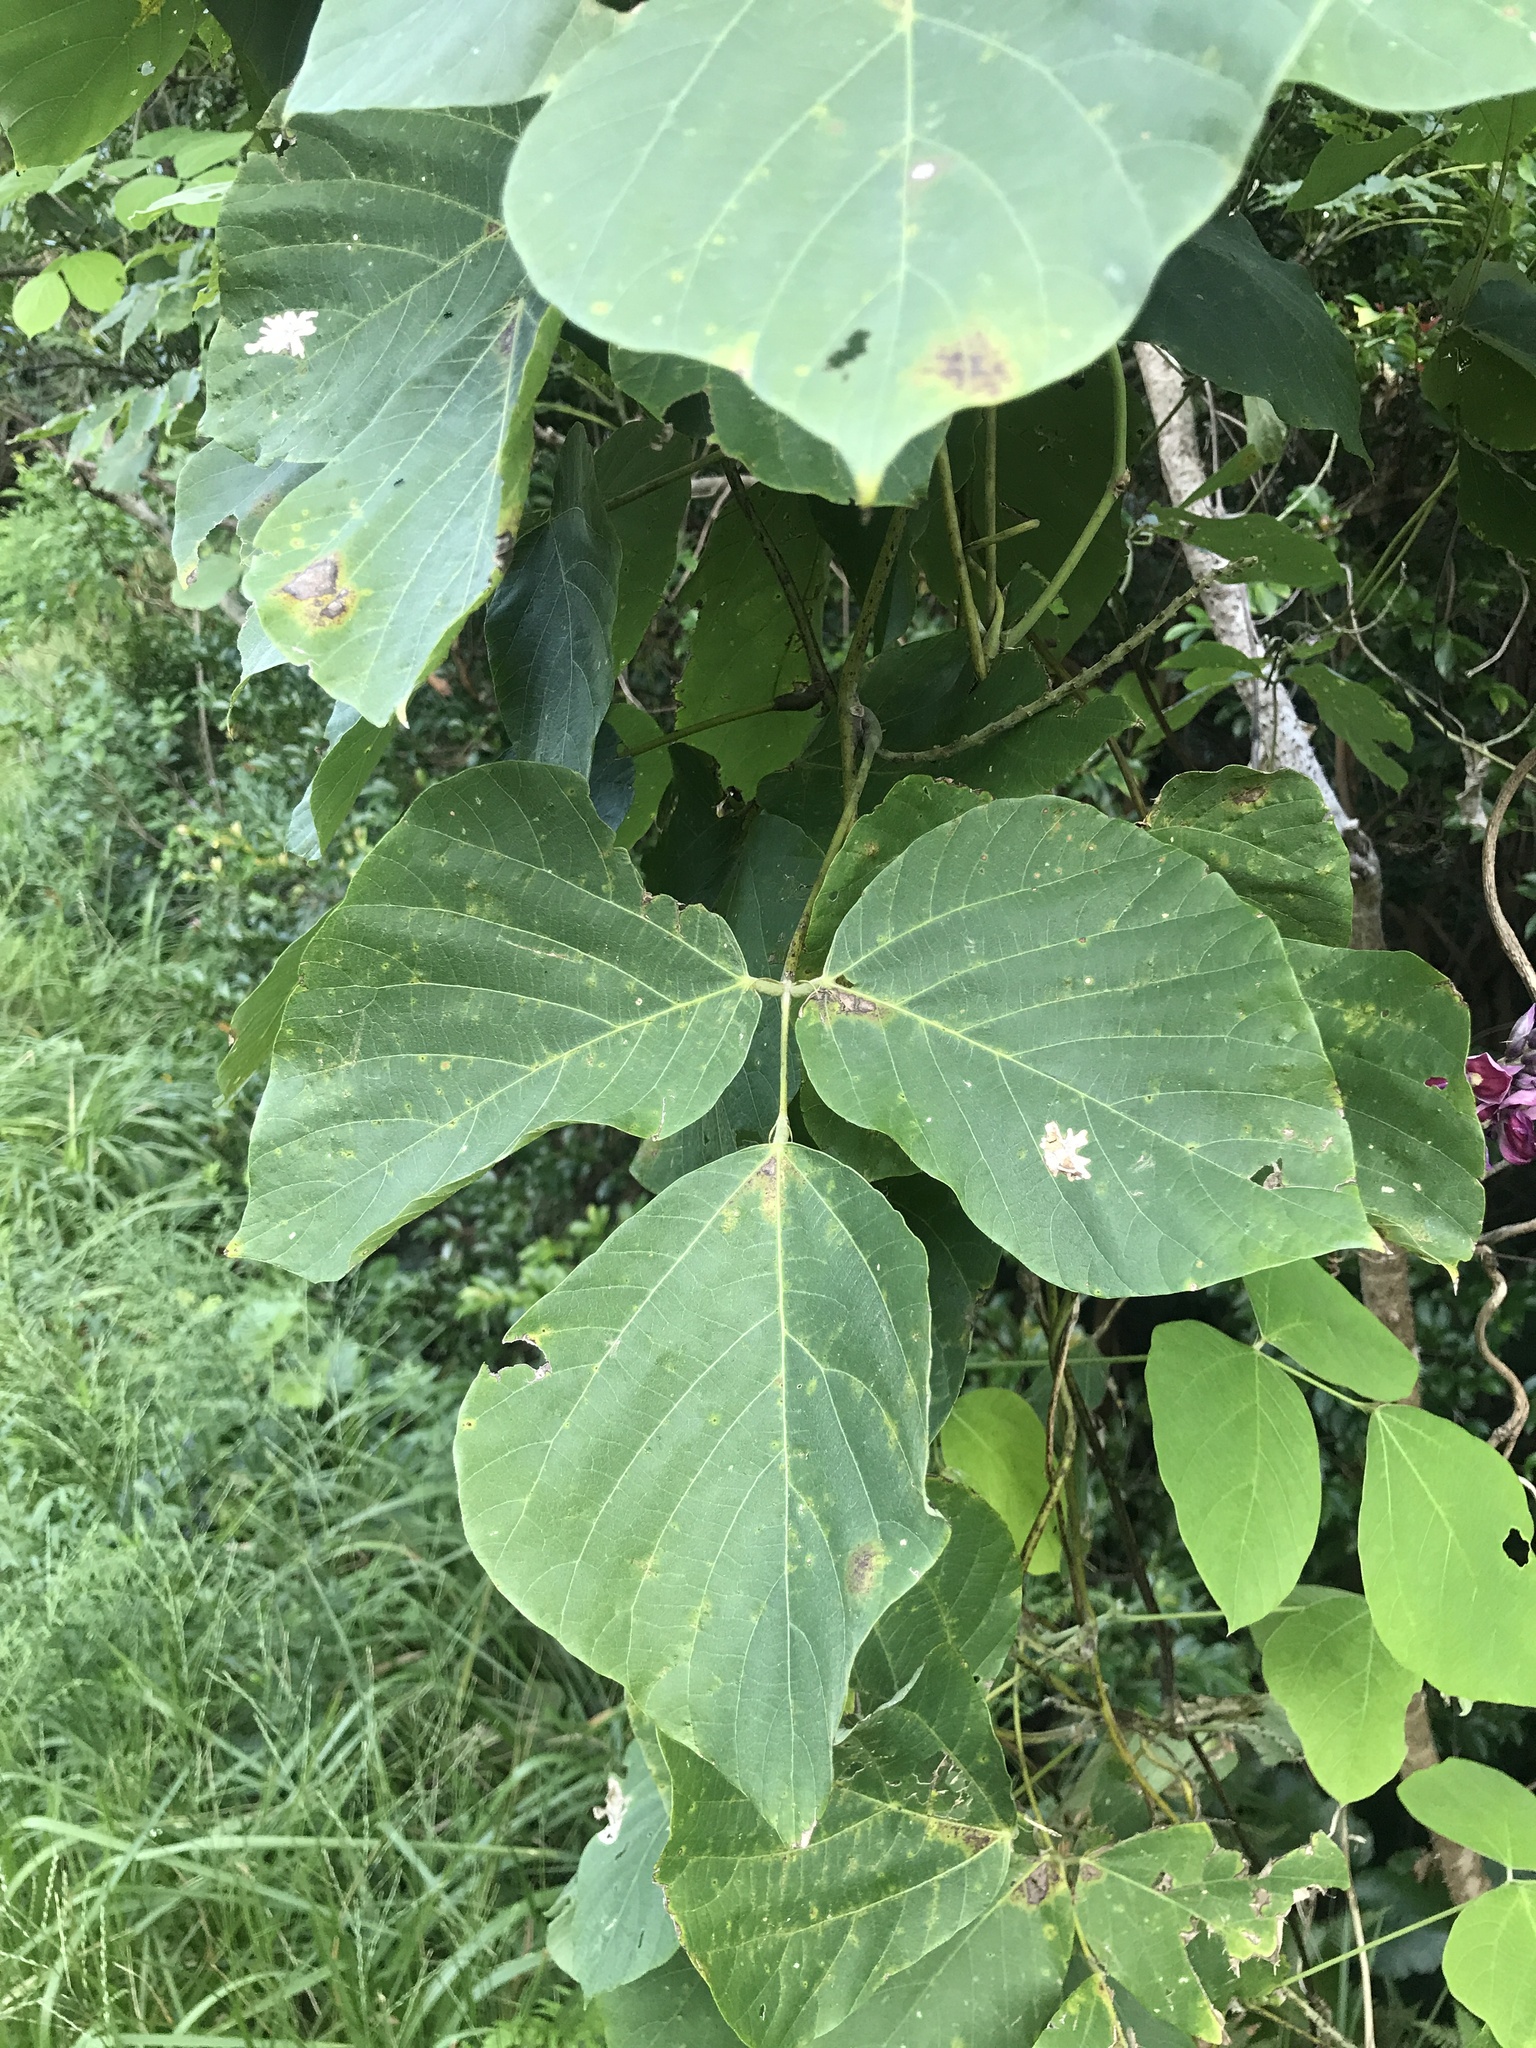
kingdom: Plantae
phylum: Tracheophyta
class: Magnoliopsida
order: Fabales
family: Fabaceae
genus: Pueraria
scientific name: Pueraria montana
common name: Kudzu
